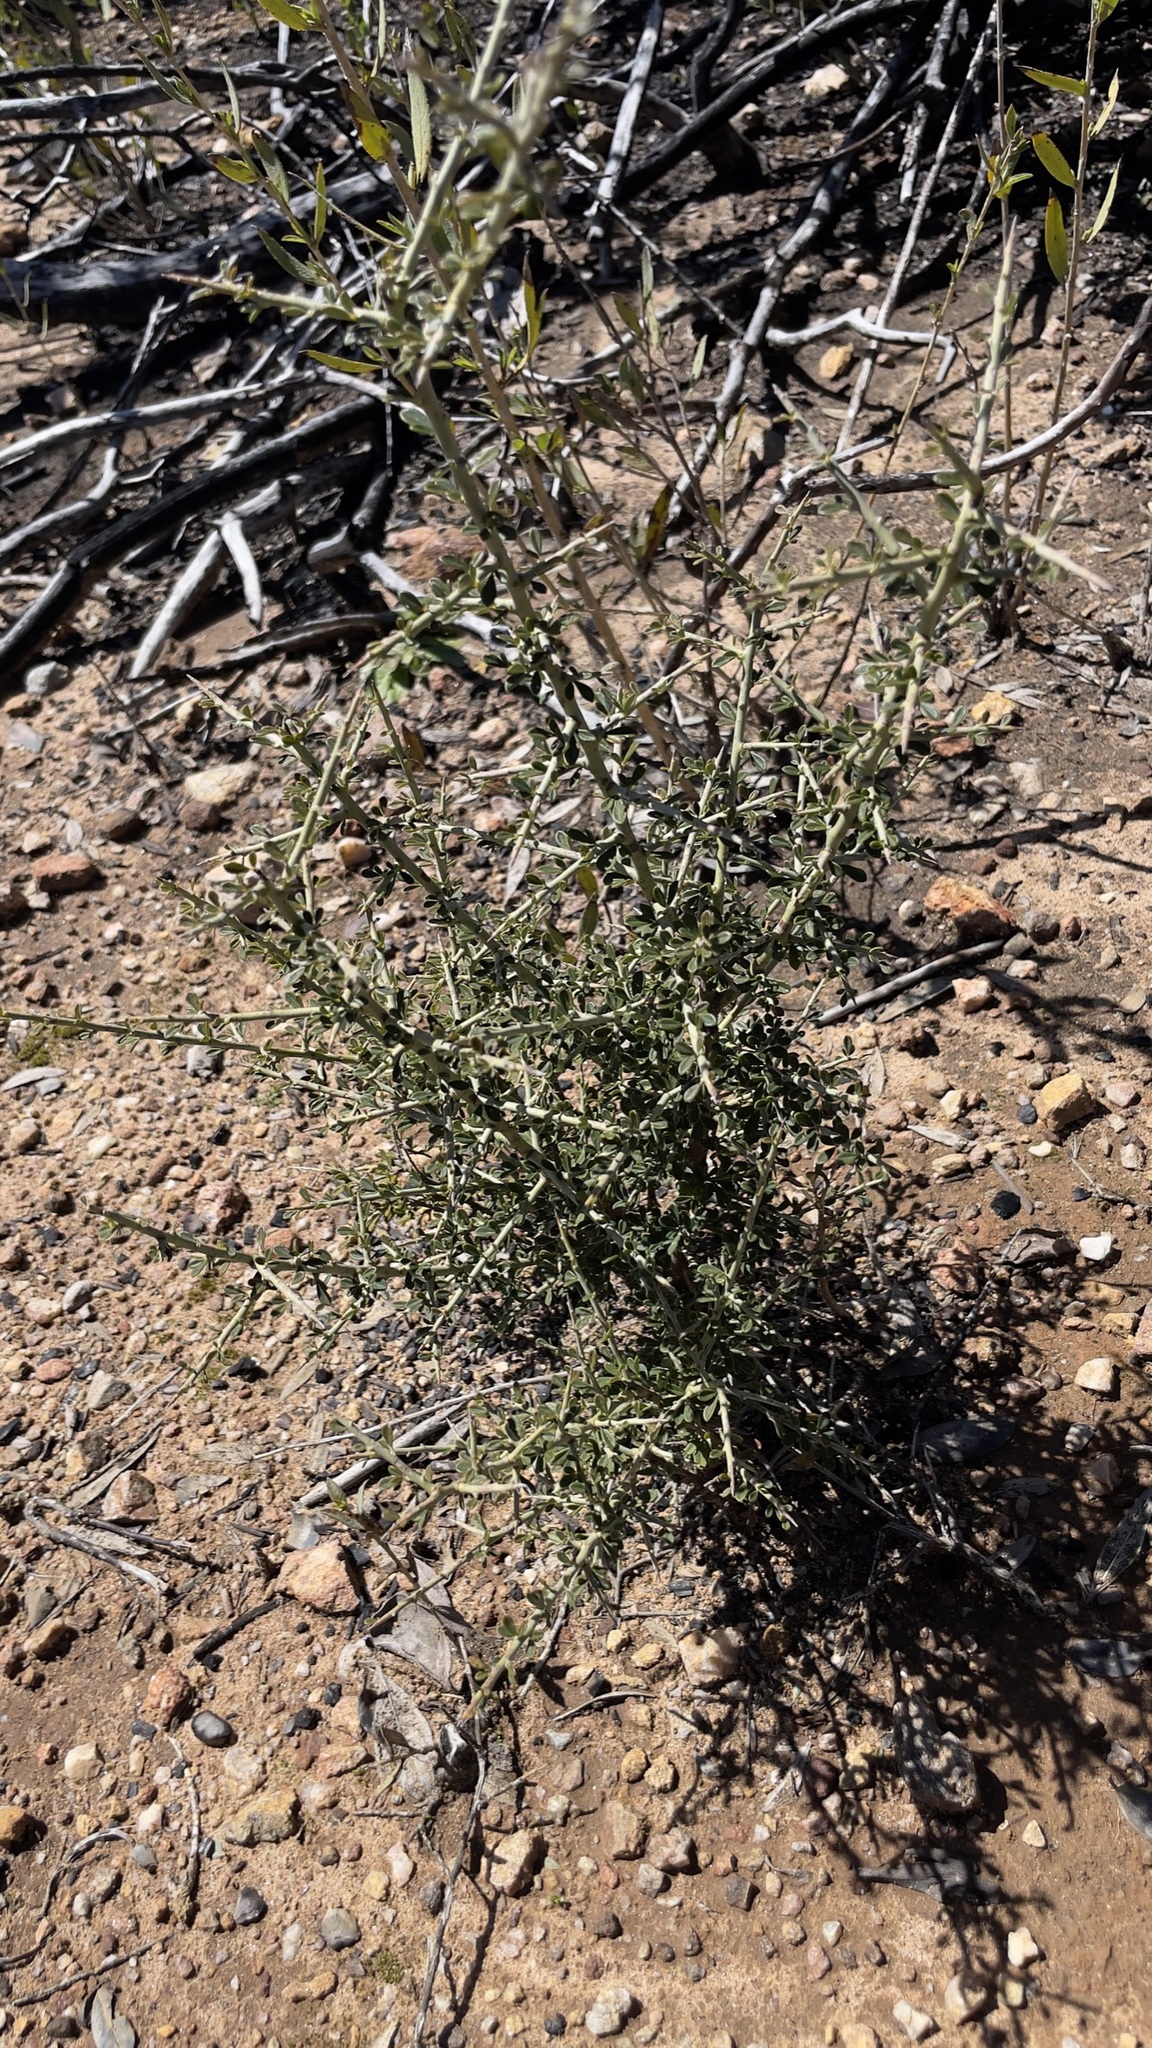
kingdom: Plantae
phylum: Tracheophyta
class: Magnoliopsida
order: Fabales
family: Fabaceae
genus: Pickeringia
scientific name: Pickeringia montana
